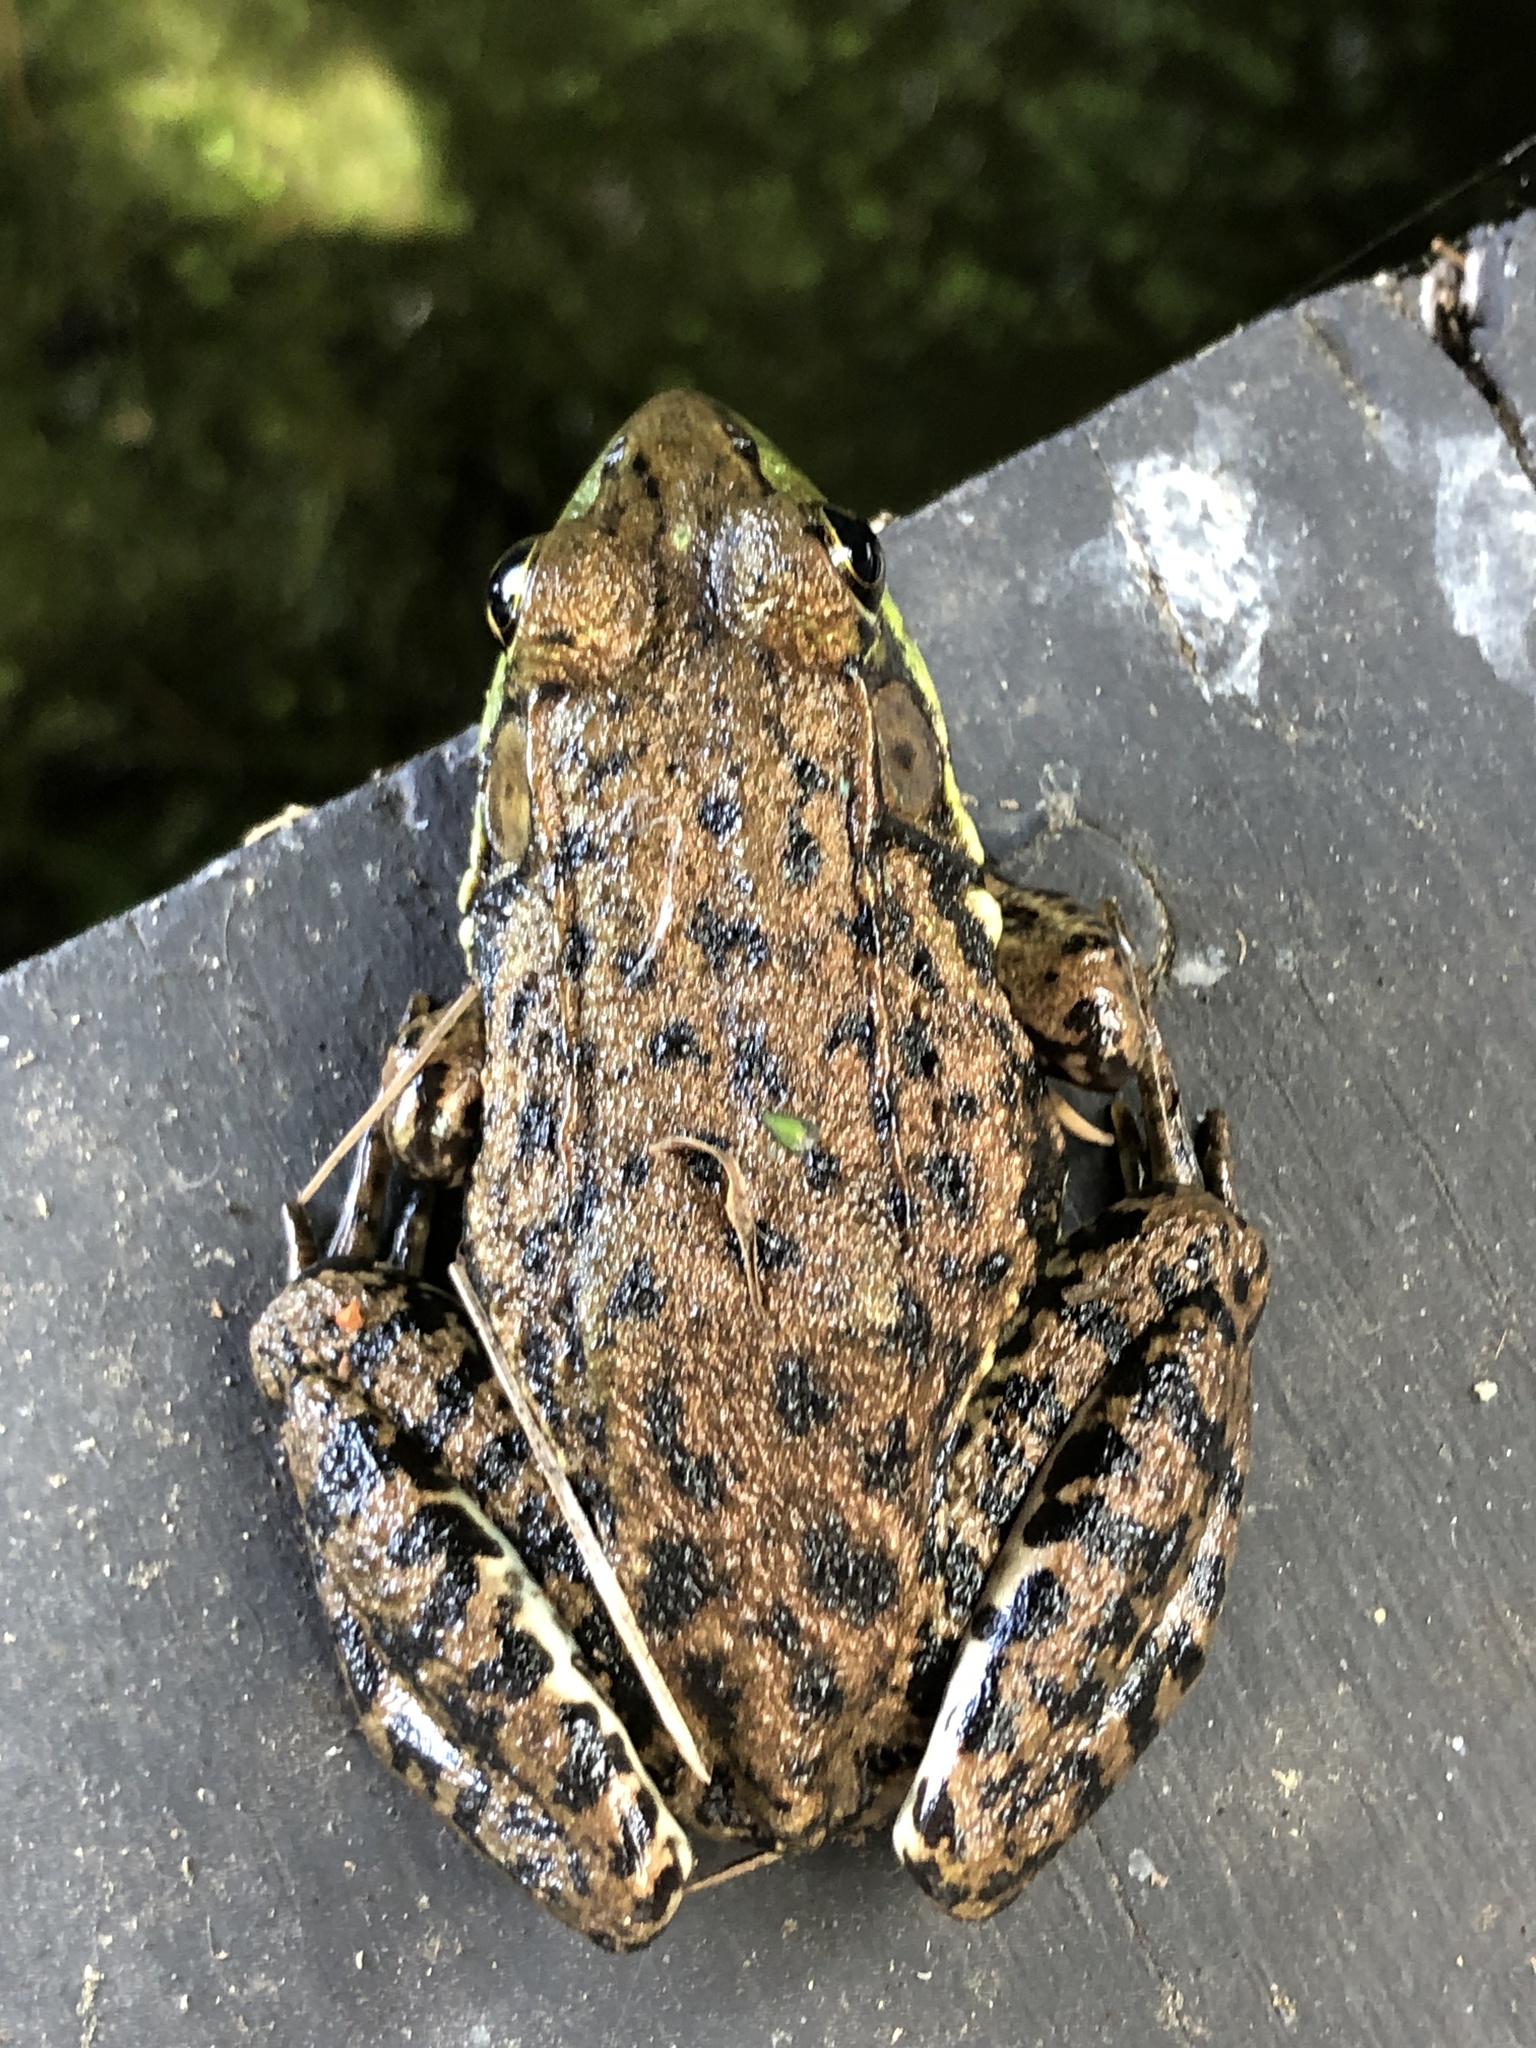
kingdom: Animalia
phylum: Chordata
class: Amphibia
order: Anura
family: Ranidae
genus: Lithobates
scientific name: Lithobates clamitans
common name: Green frog
